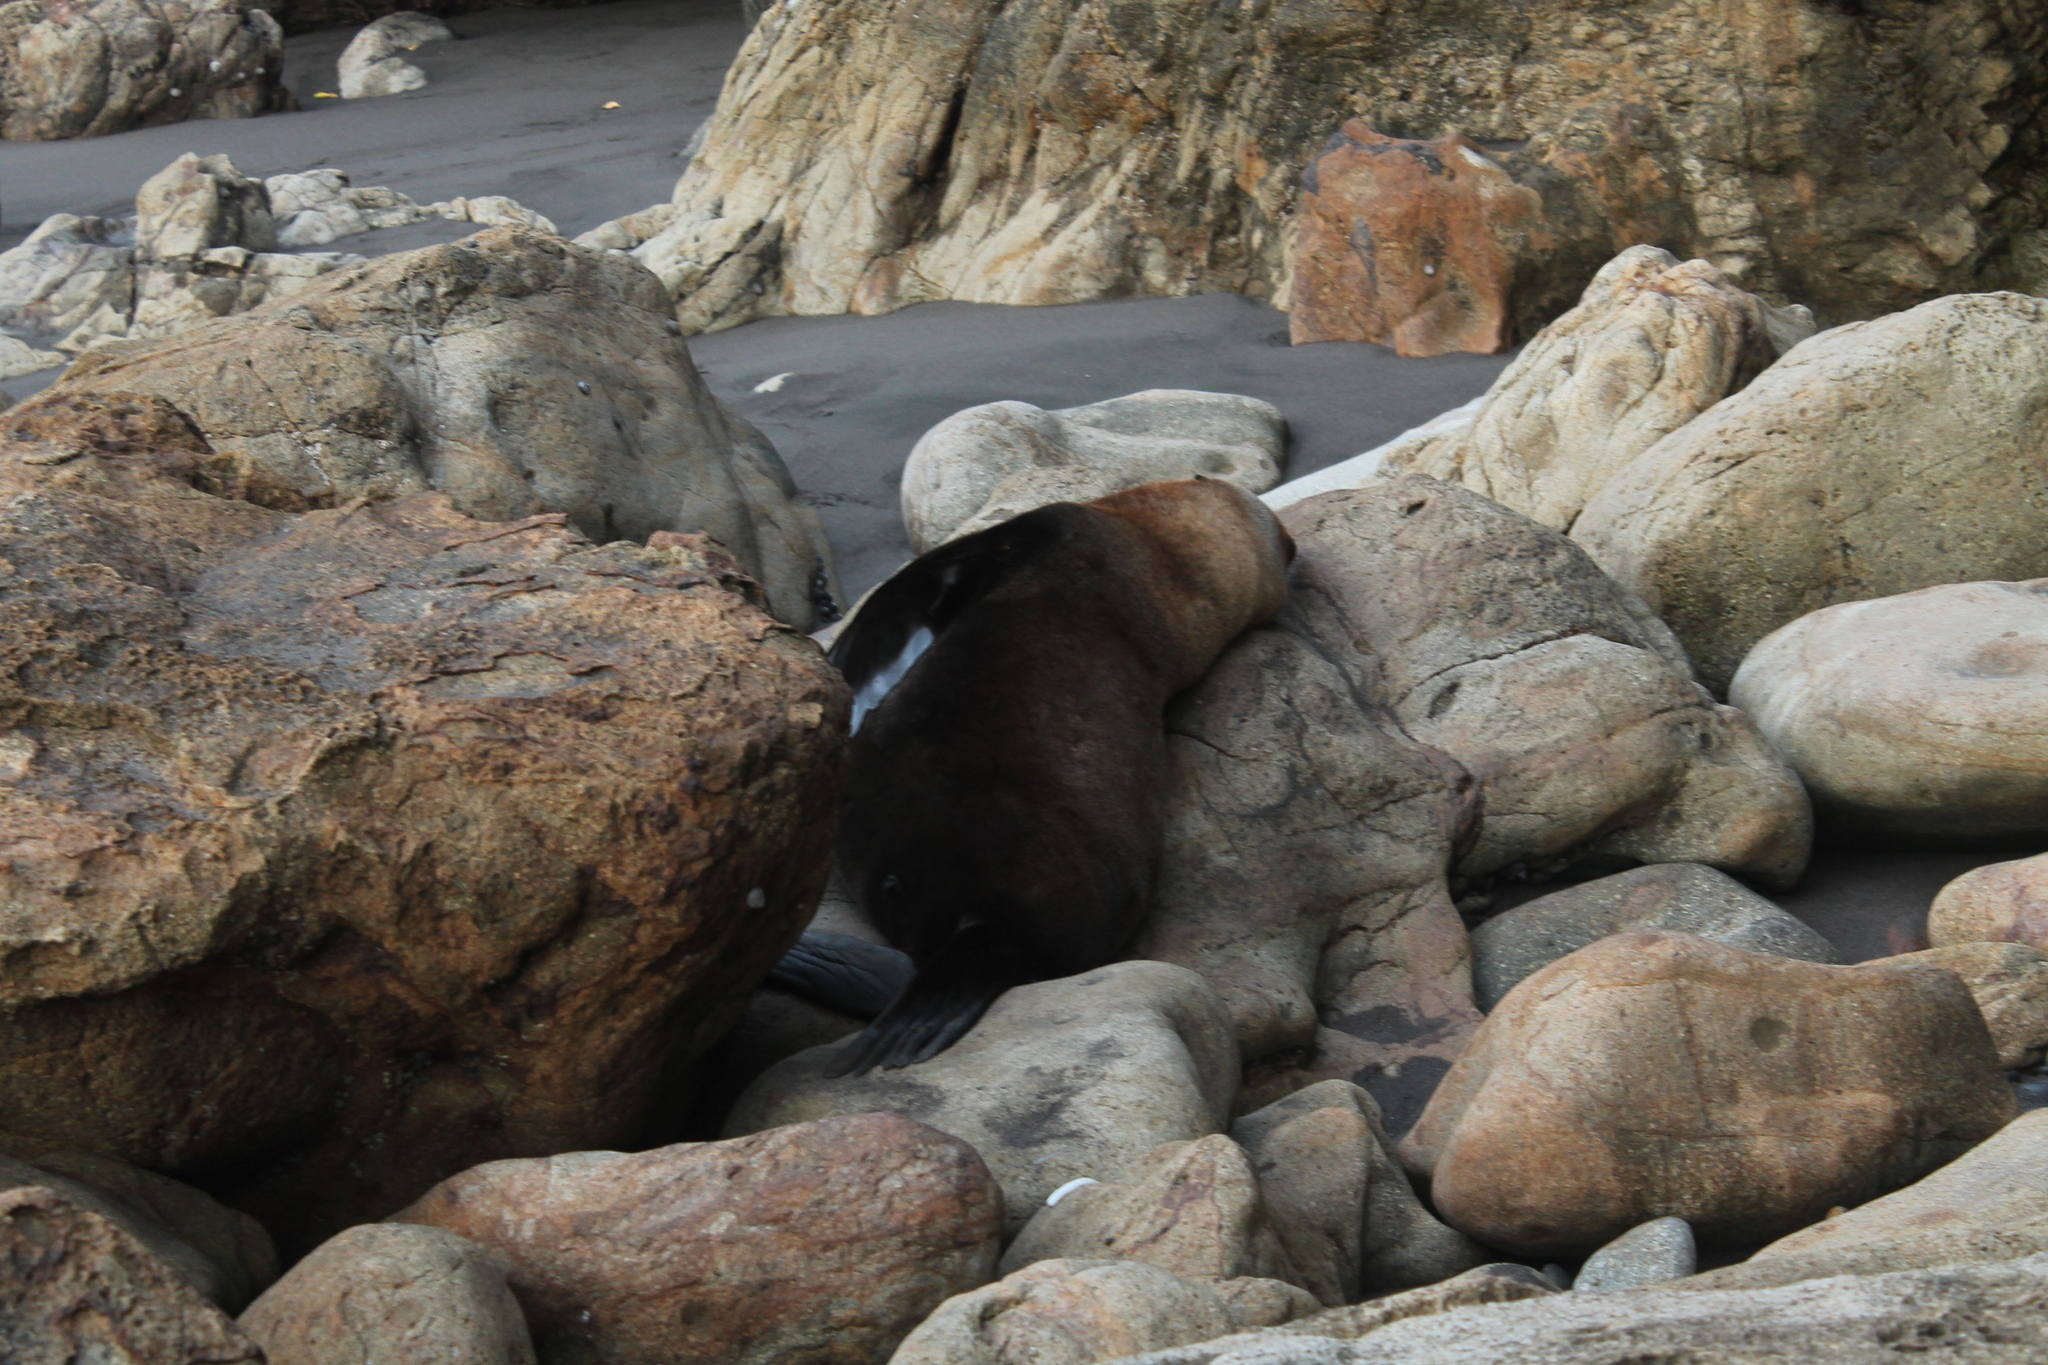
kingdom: Animalia
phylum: Chordata
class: Mammalia
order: Carnivora
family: Otariidae
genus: Arctocephalus
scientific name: Arctocephalus forsteri
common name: New zealand fur seal
